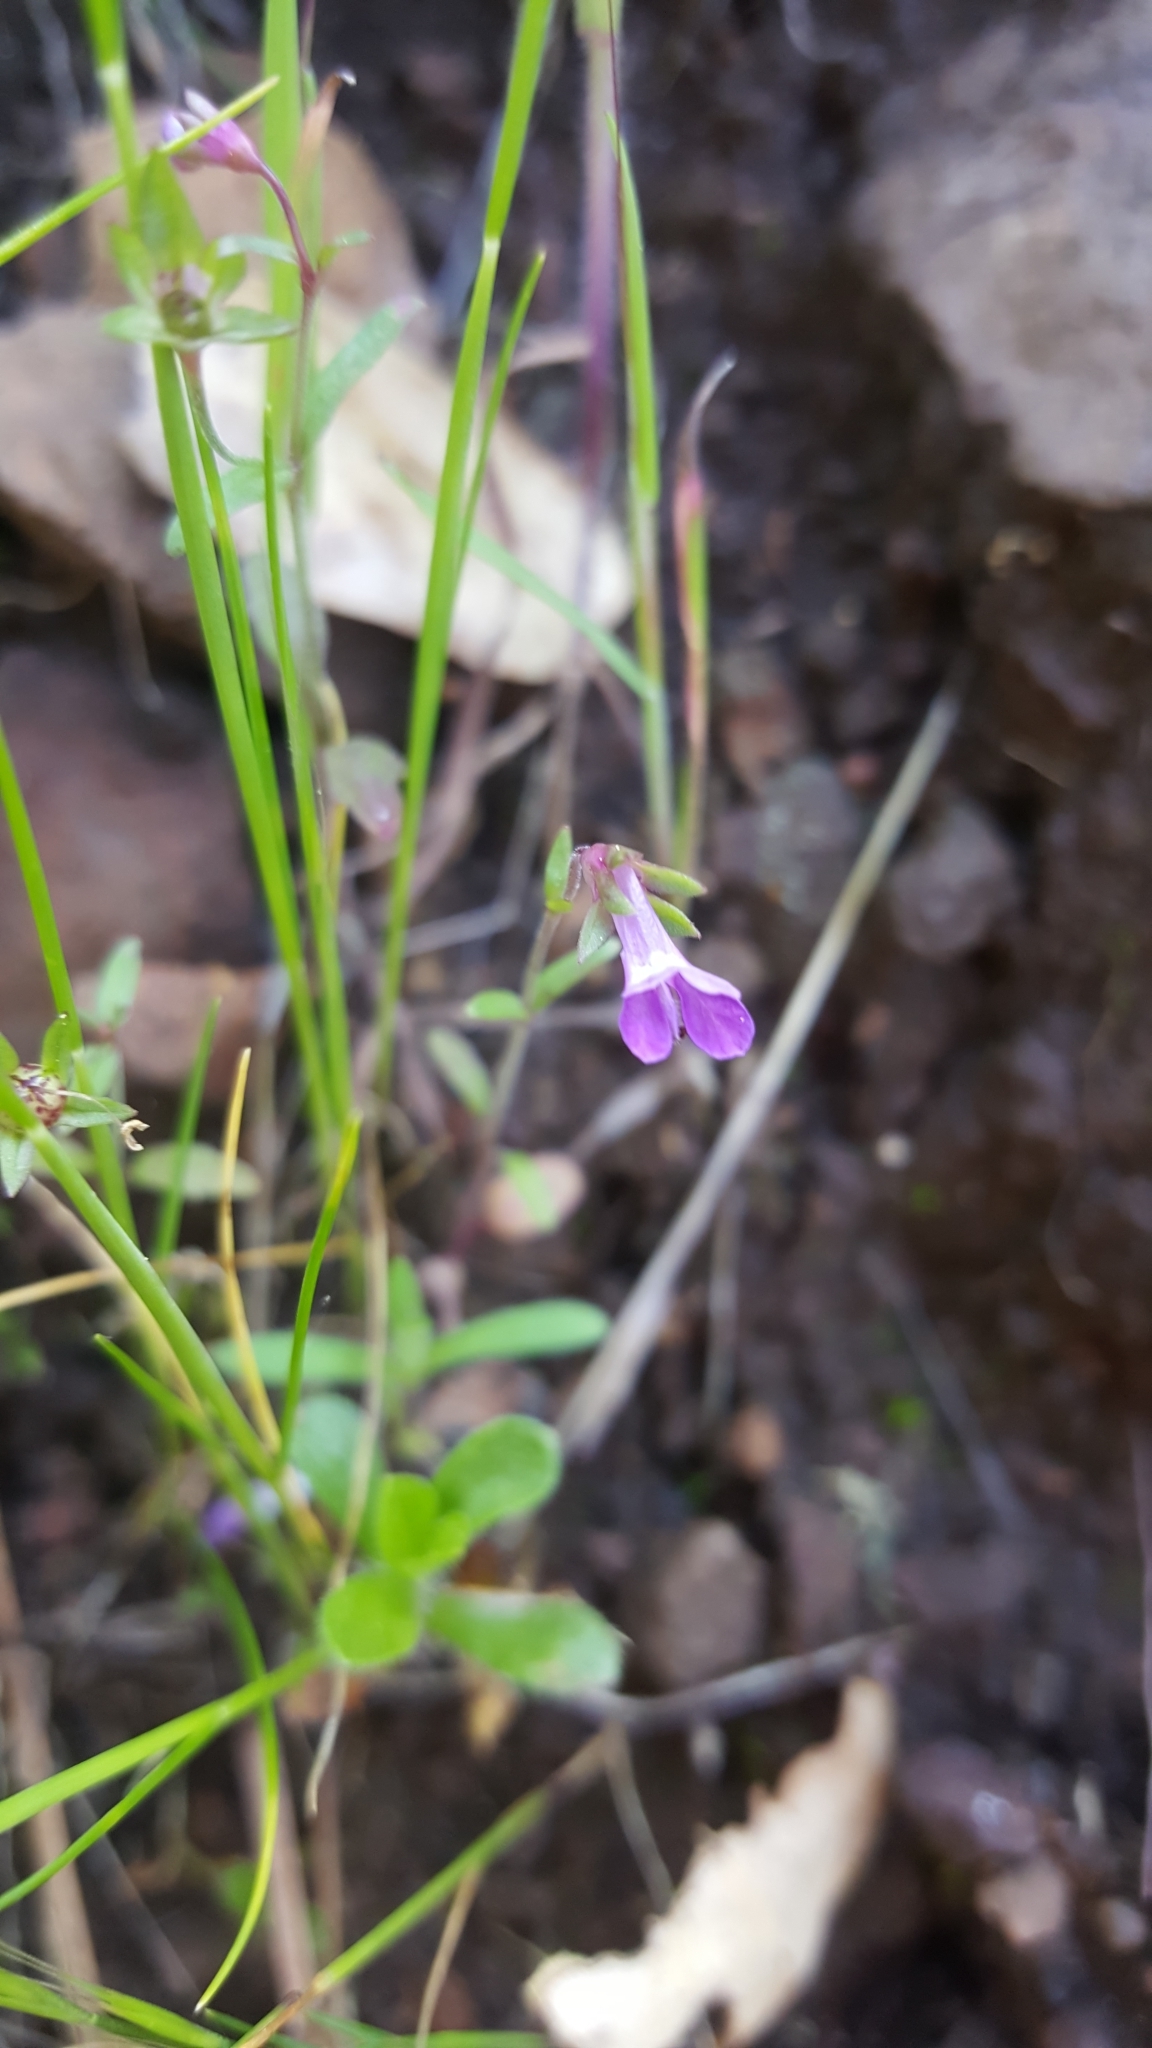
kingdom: Plantae
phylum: Tracheophyta
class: Magnoliopsida
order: Lamiales
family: Plantaginaceae
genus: Collinsia
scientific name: Collinsia sparsiflora
